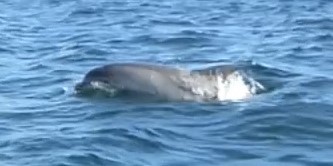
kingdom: Animalia
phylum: Chordata
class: Mammalia
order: Cetacea
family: Delphinidae
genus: Tursiops
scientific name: Tursiops truncatus
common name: Bottlenose dolphin
